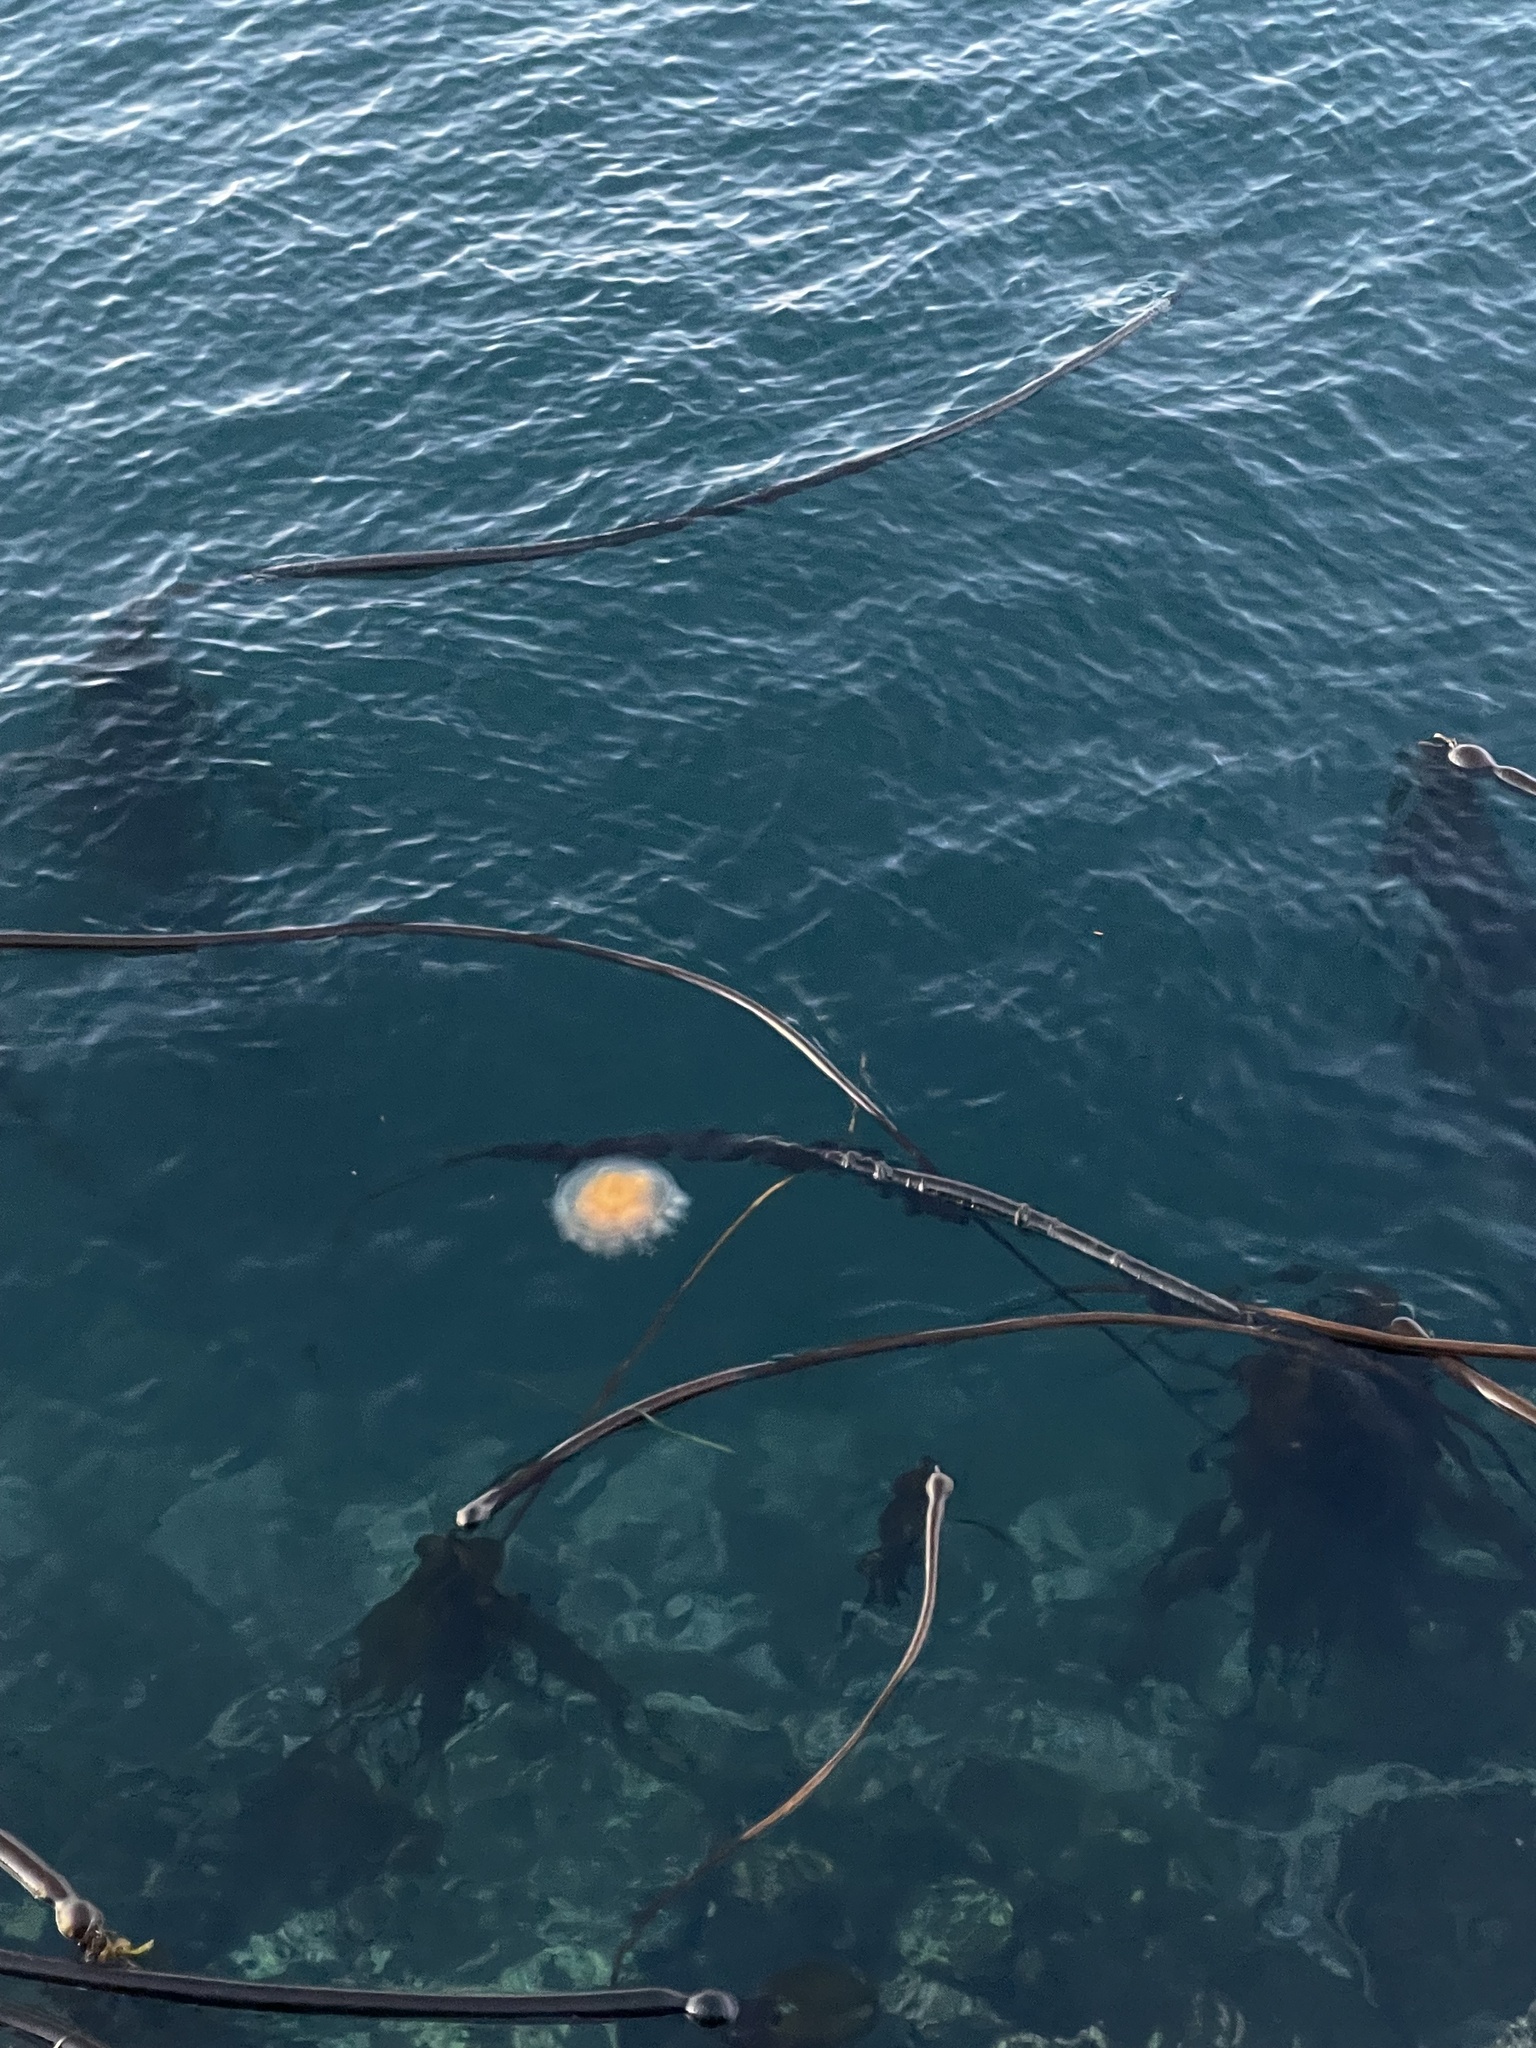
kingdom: Animalia
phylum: Cnidaria
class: Scyphozoa
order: Semaeostomeae
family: Phacellophoridae
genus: Phacellophora
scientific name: Phacellophora camtschatica
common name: Fried-egg jellyfish
